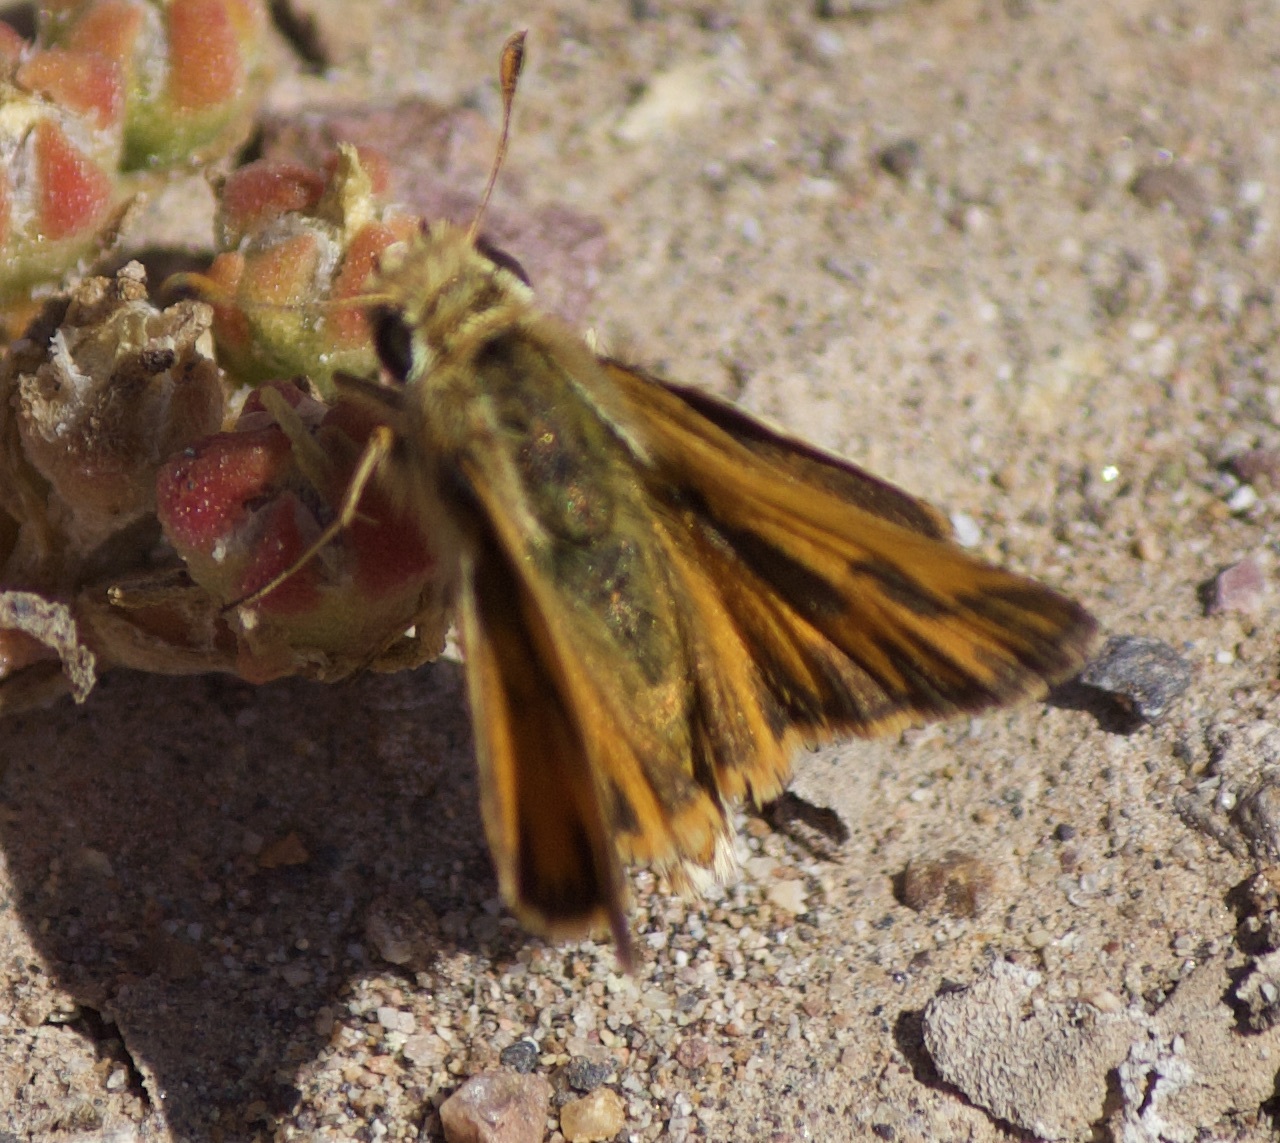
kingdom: Animalia
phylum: Arthropoda
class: Insecta
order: Lepidoptera
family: Hesperiidae
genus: Hylephila
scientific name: Hylephila fasciolata
